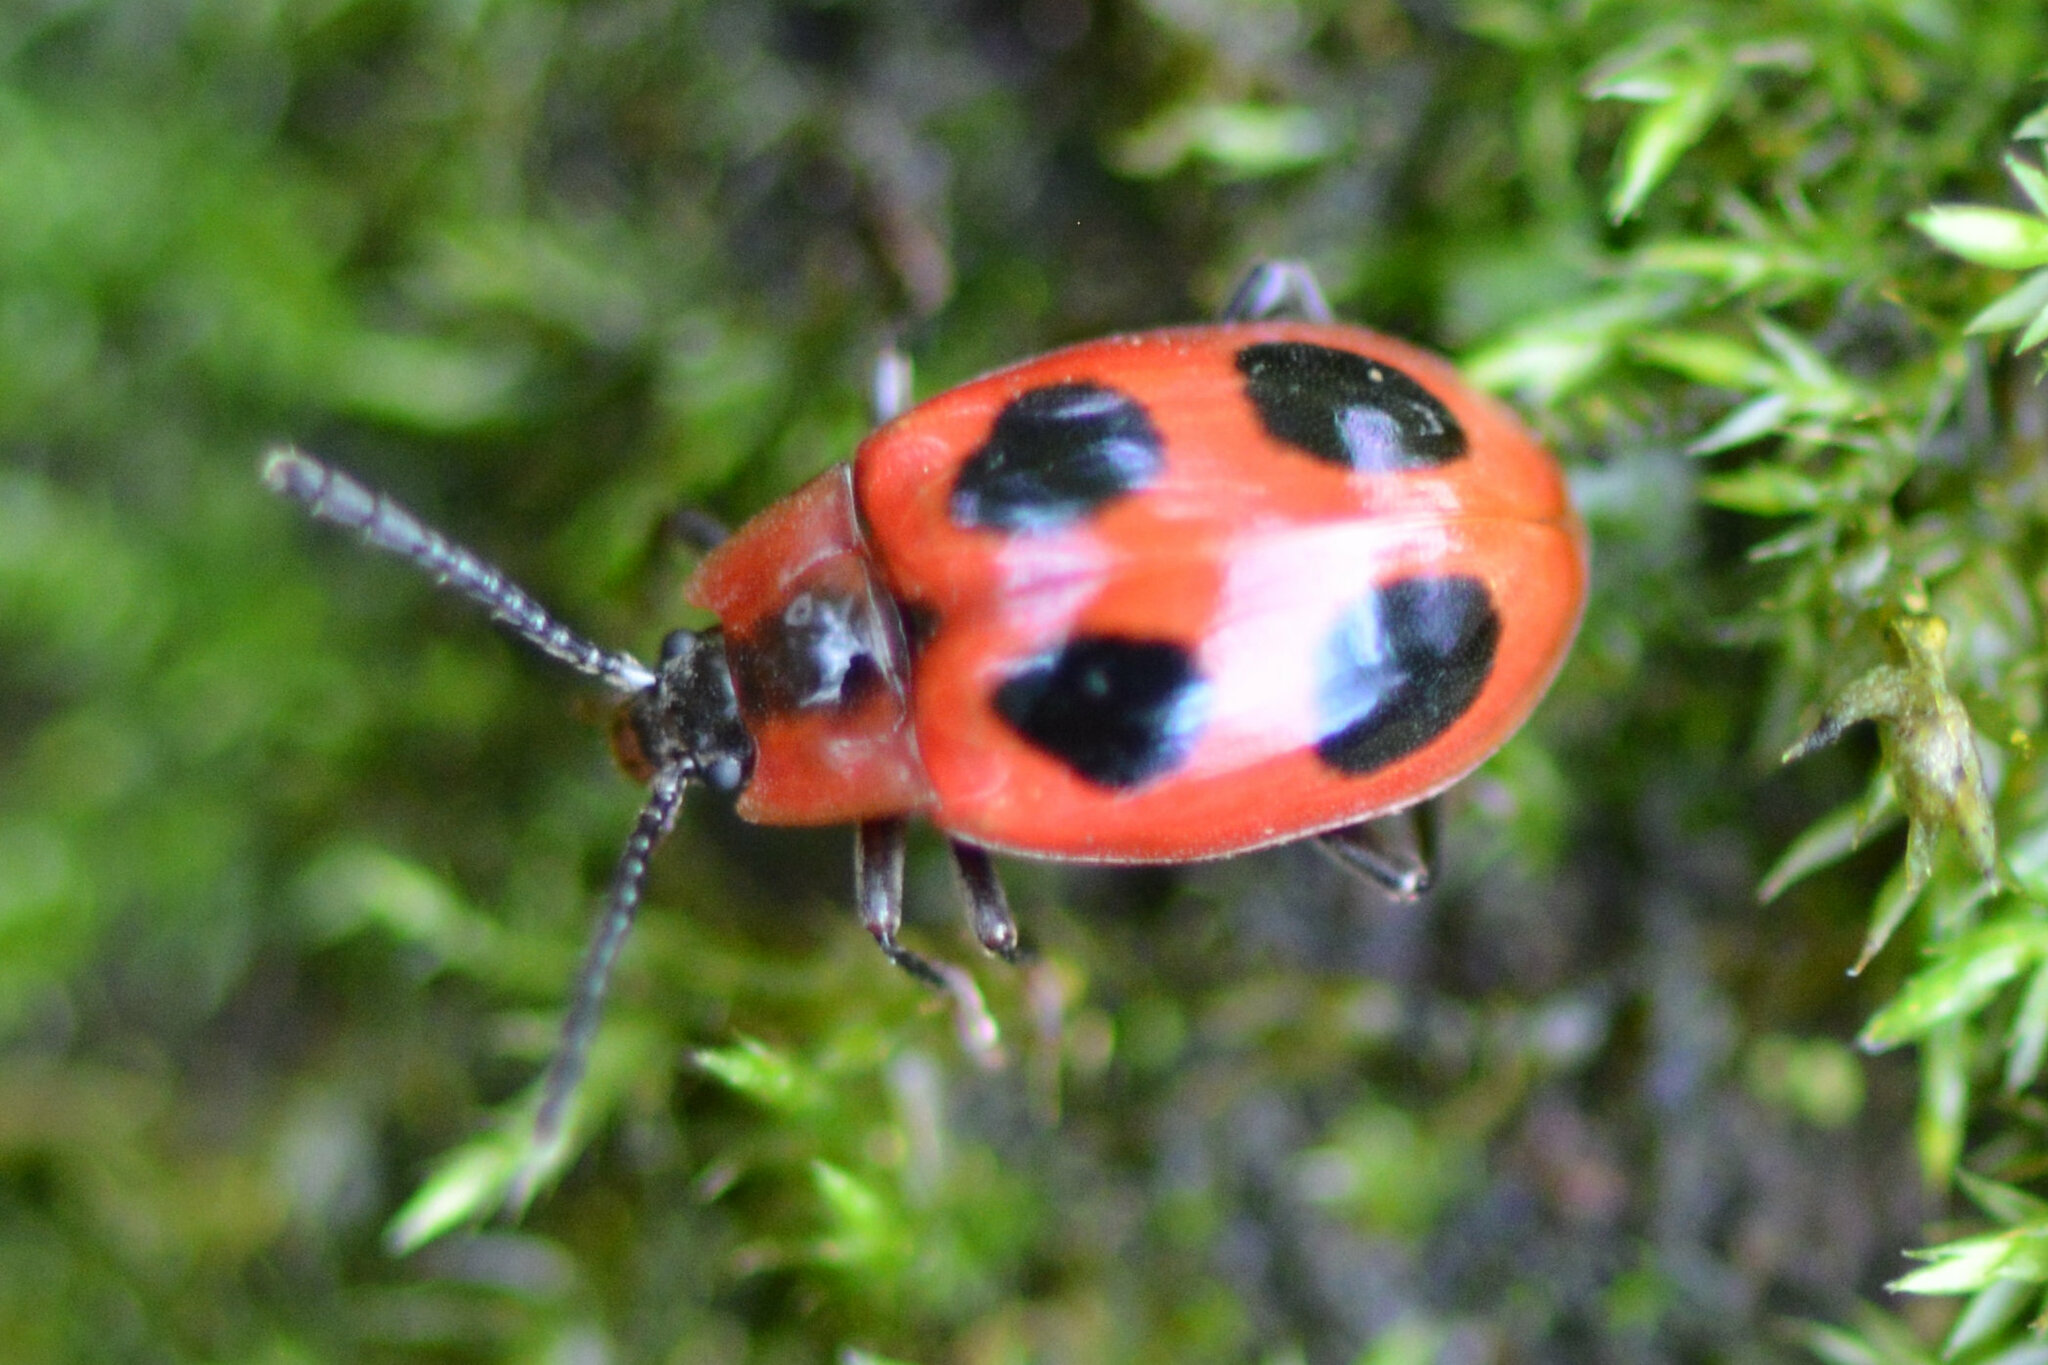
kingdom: Animalia
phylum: Arthropoda
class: Insecta
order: Coleoptera
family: Endomychidae
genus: Endomychus
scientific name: Endomychus coccineus
